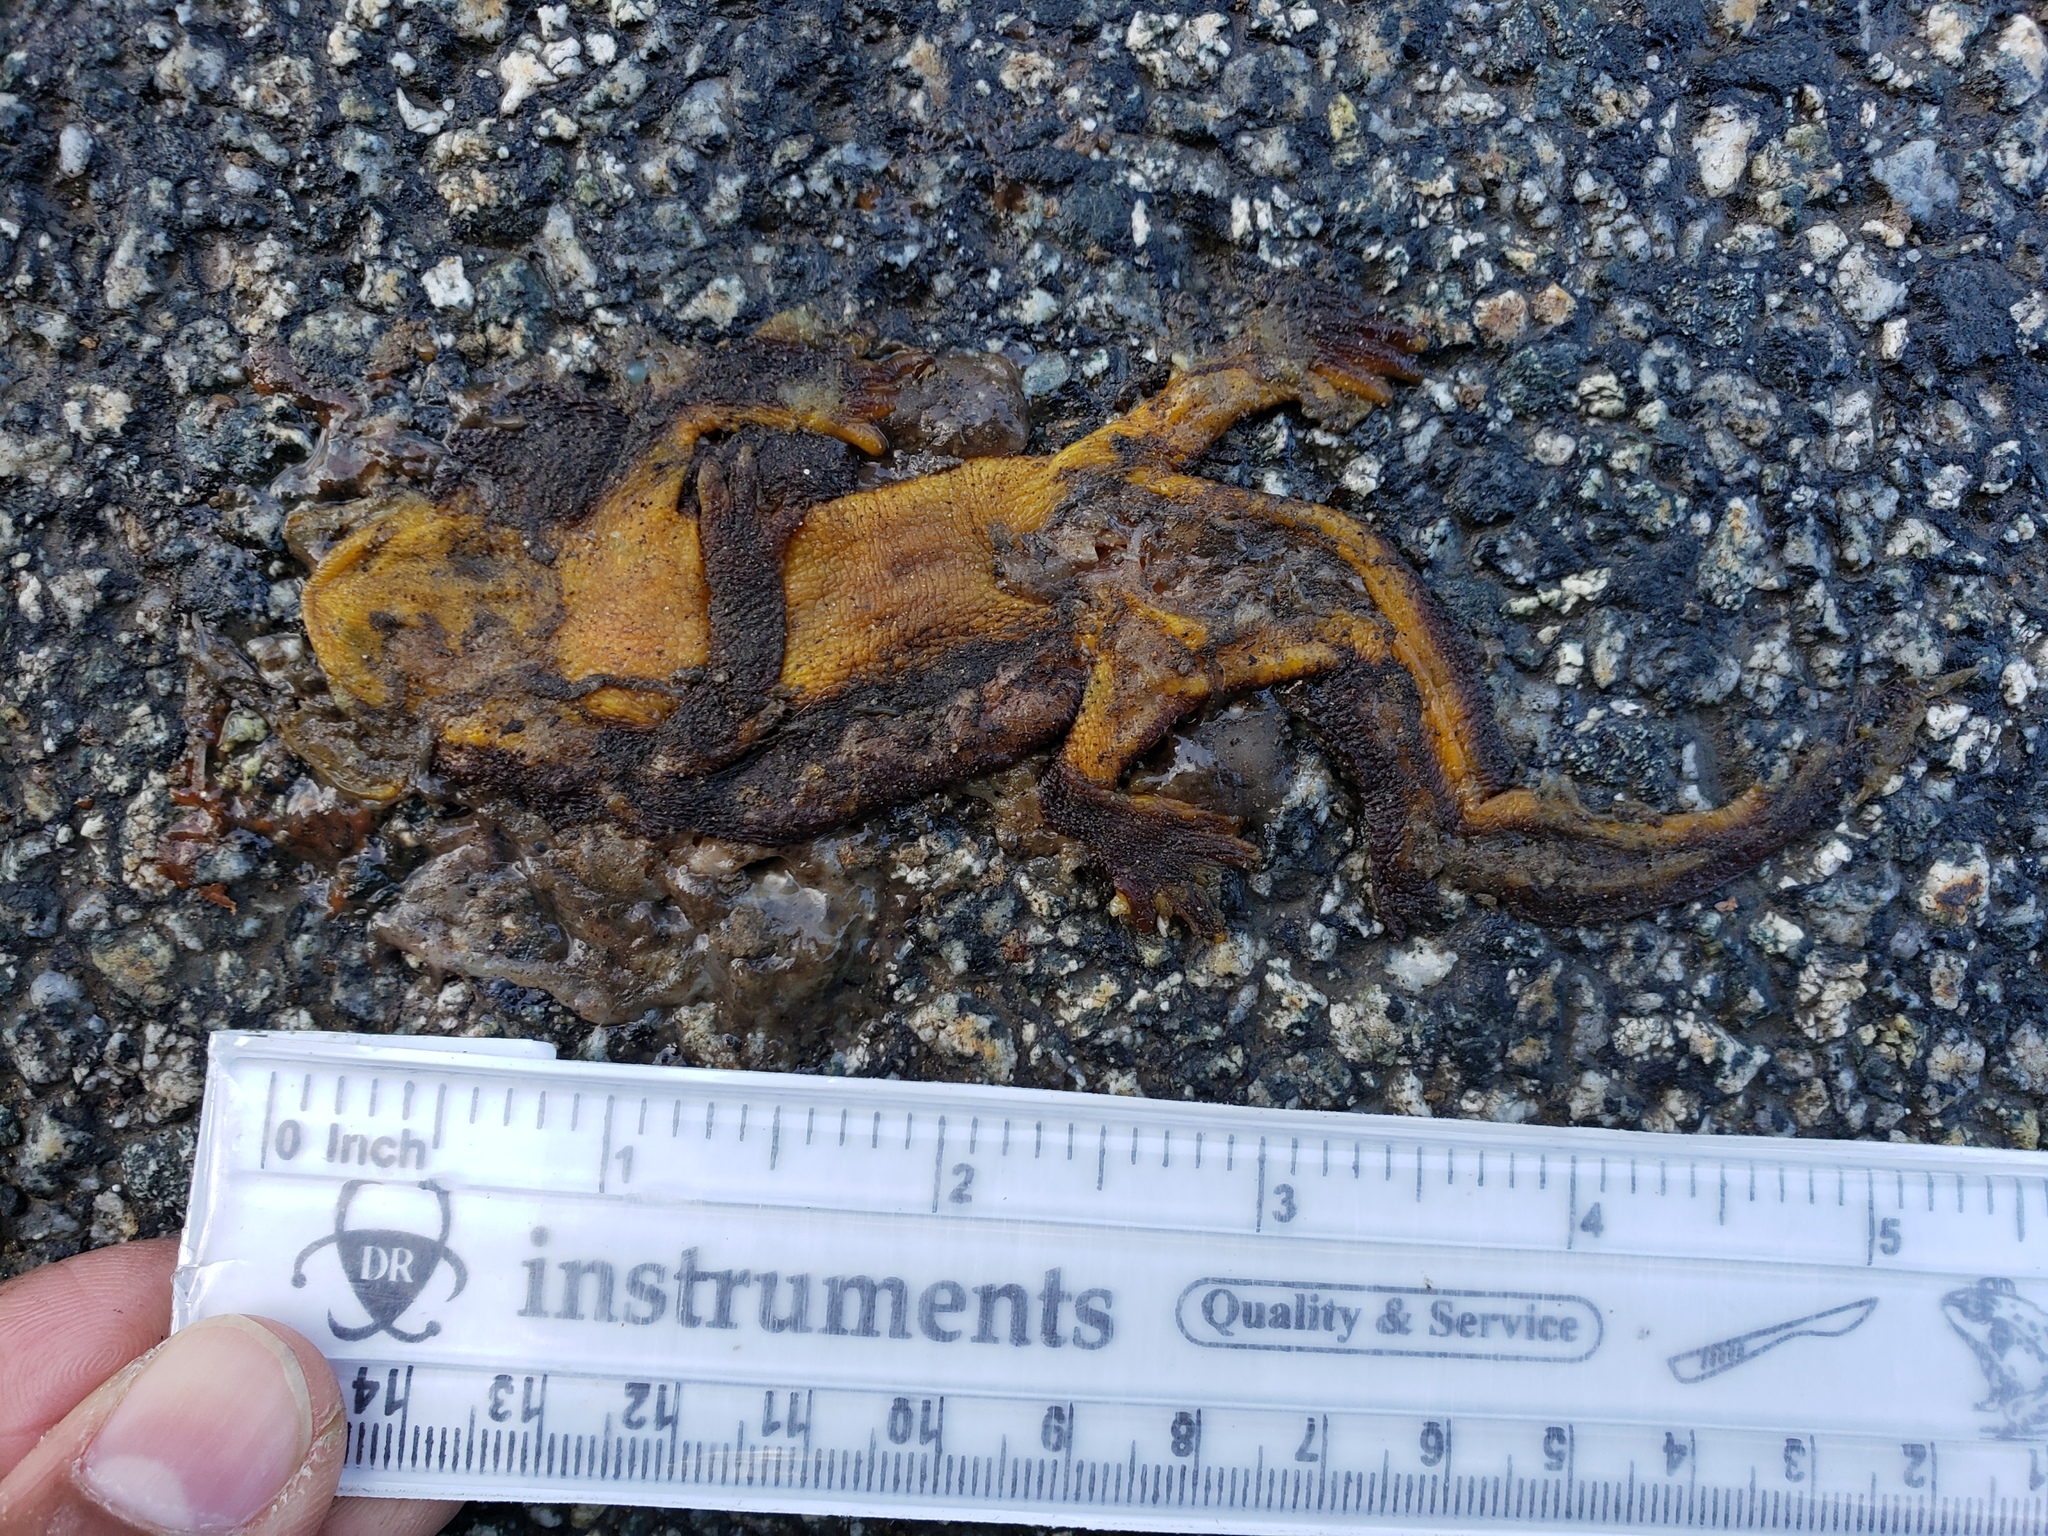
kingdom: Animalia
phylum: Chordata
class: Amphibia
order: Caudata
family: Salamandridae
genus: Taricha
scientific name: Taricha
